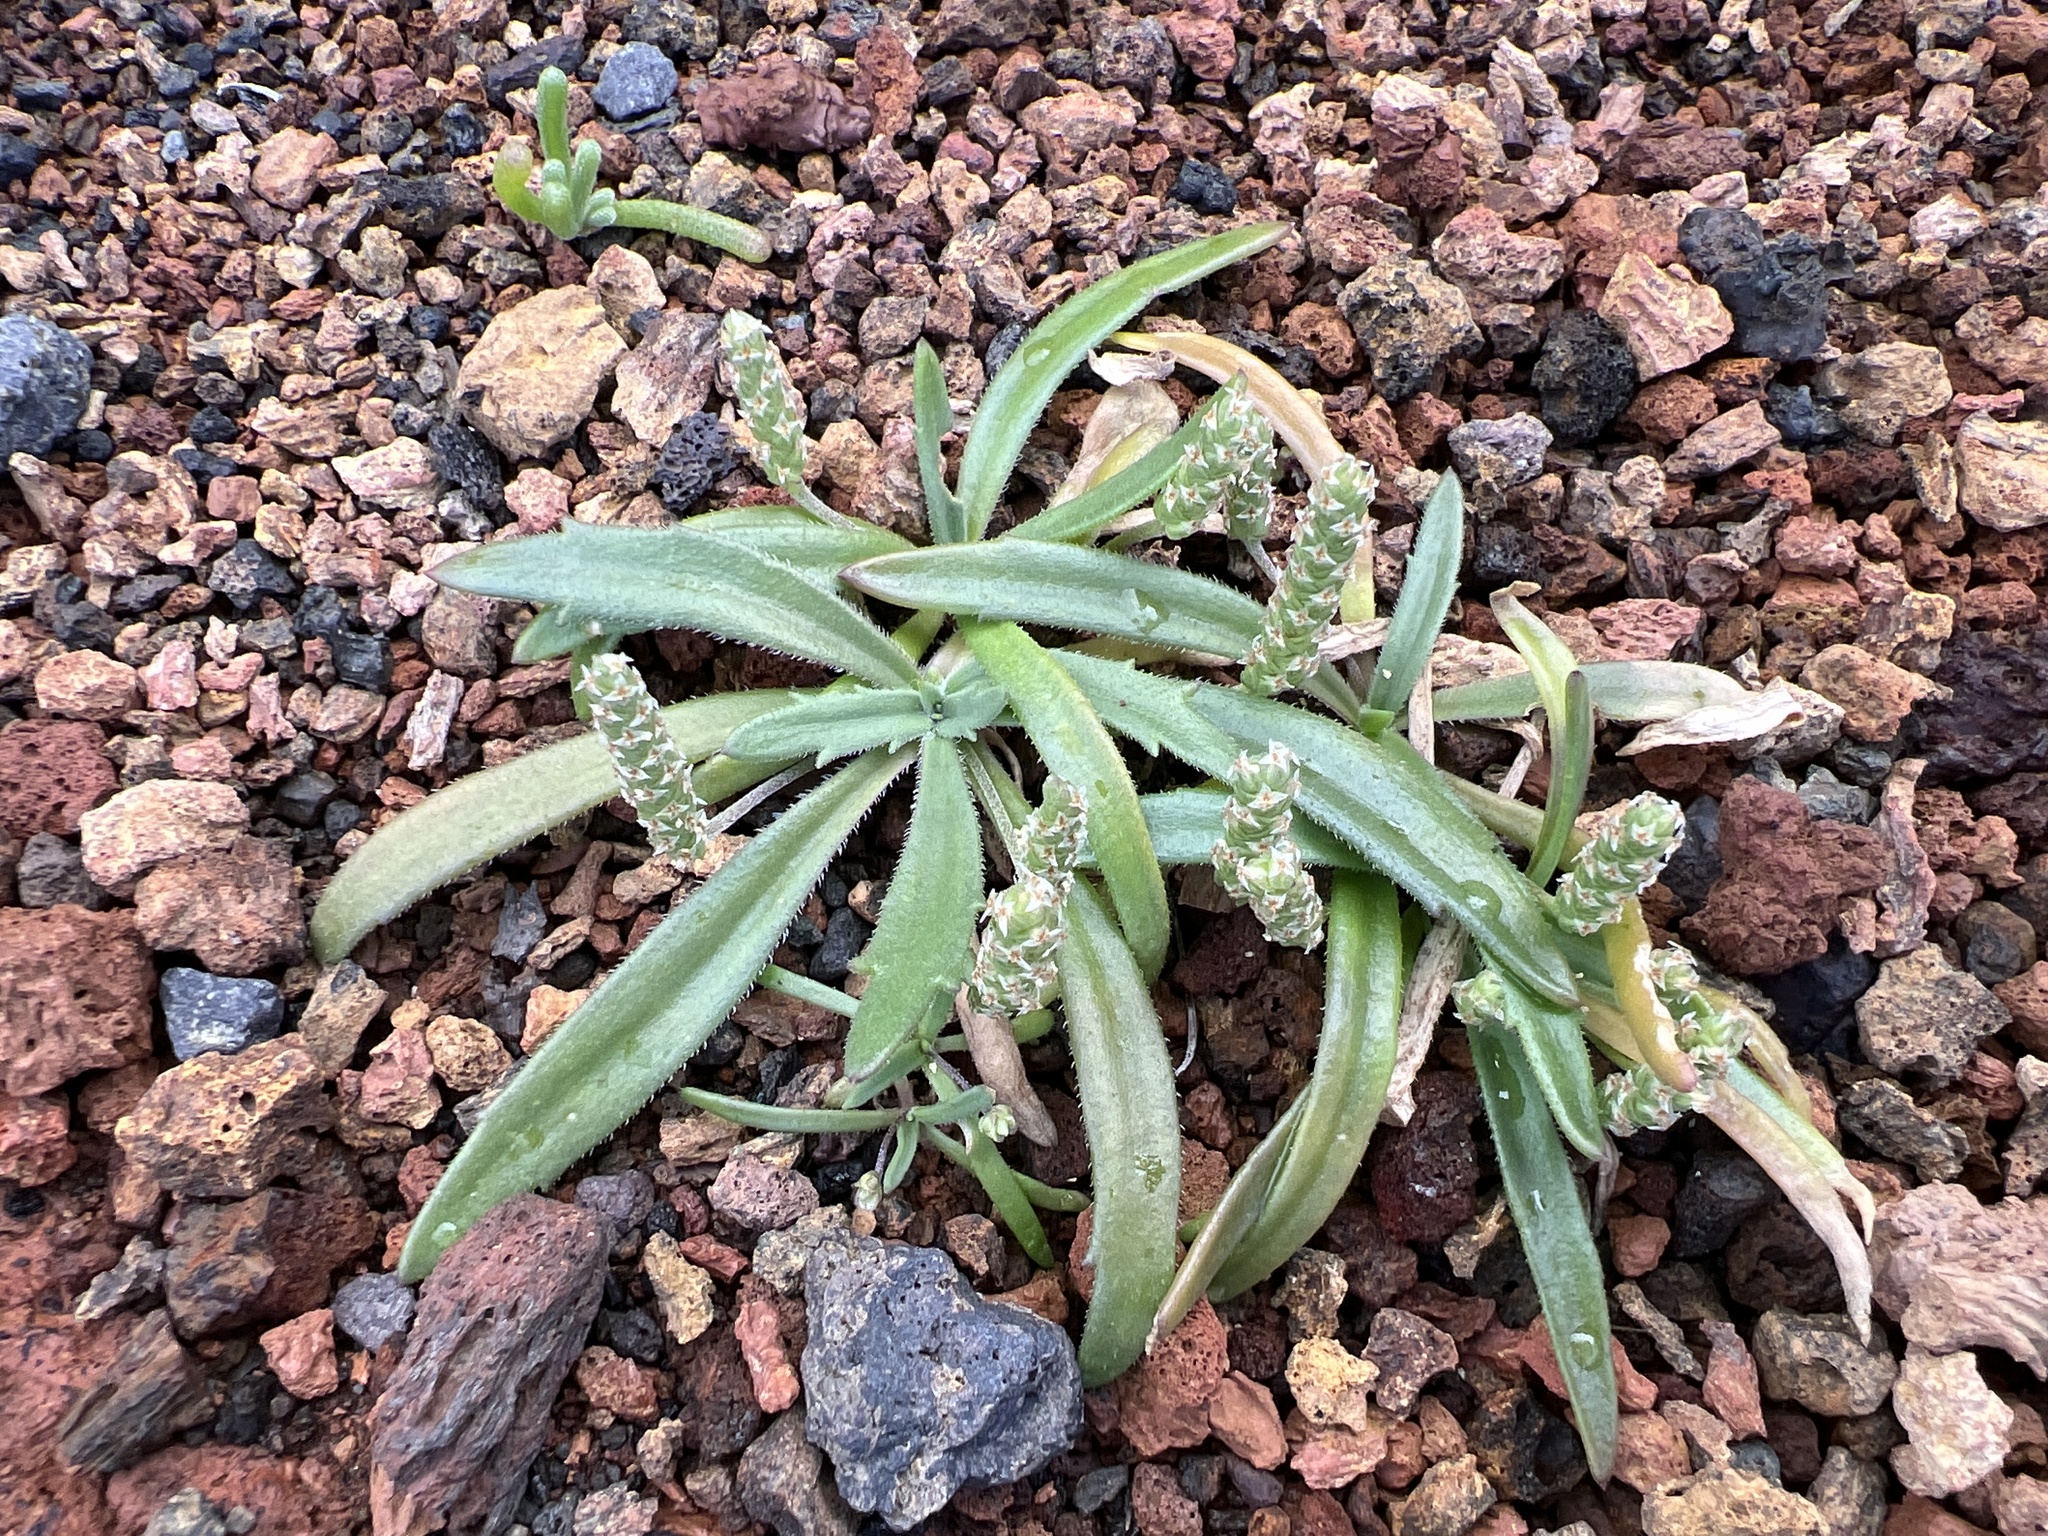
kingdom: Plantae
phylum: Tracheophyta
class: Magnoliopsida
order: Lamiales
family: Plantaginaceae
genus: Plantago
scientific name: Plantago coronopus
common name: Buck's-horn plantain
